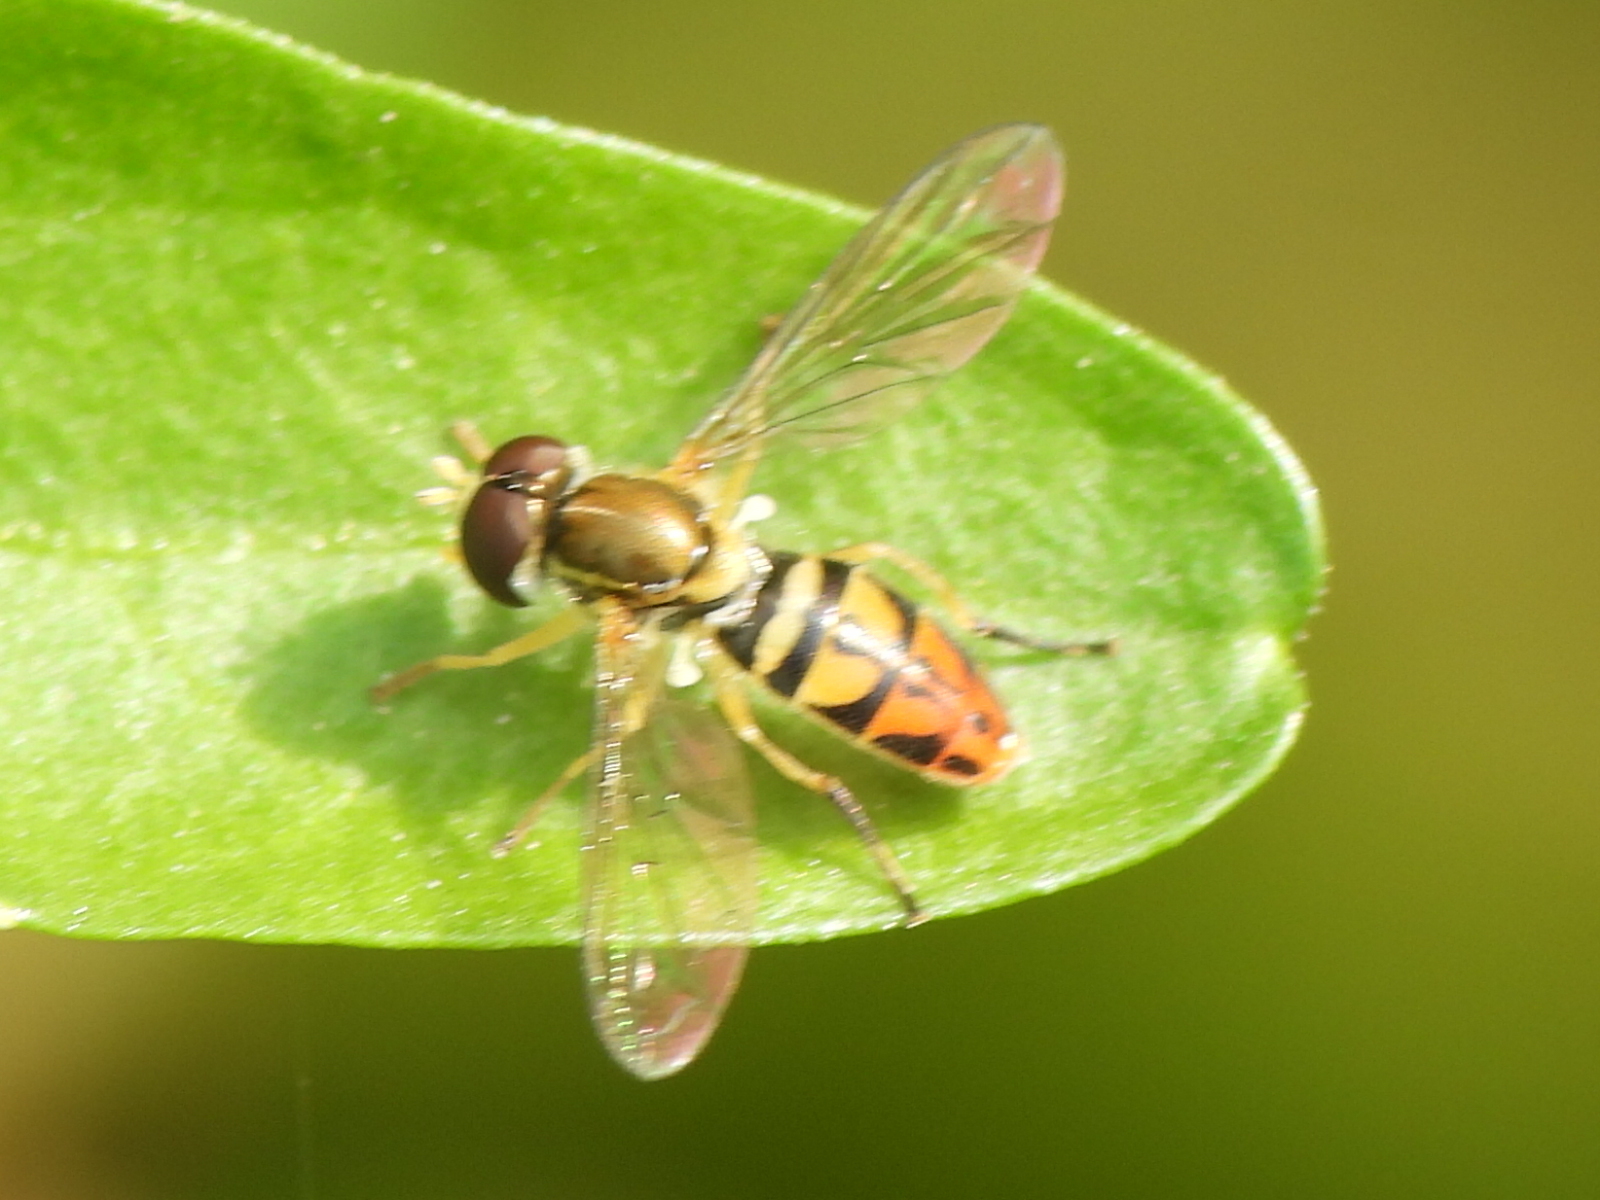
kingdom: Animalia
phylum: Arthropoda
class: Insecta
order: Diptera
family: Syrphidae
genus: Toxomerus
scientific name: Toxomerus marginatus
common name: Syrphid fly
